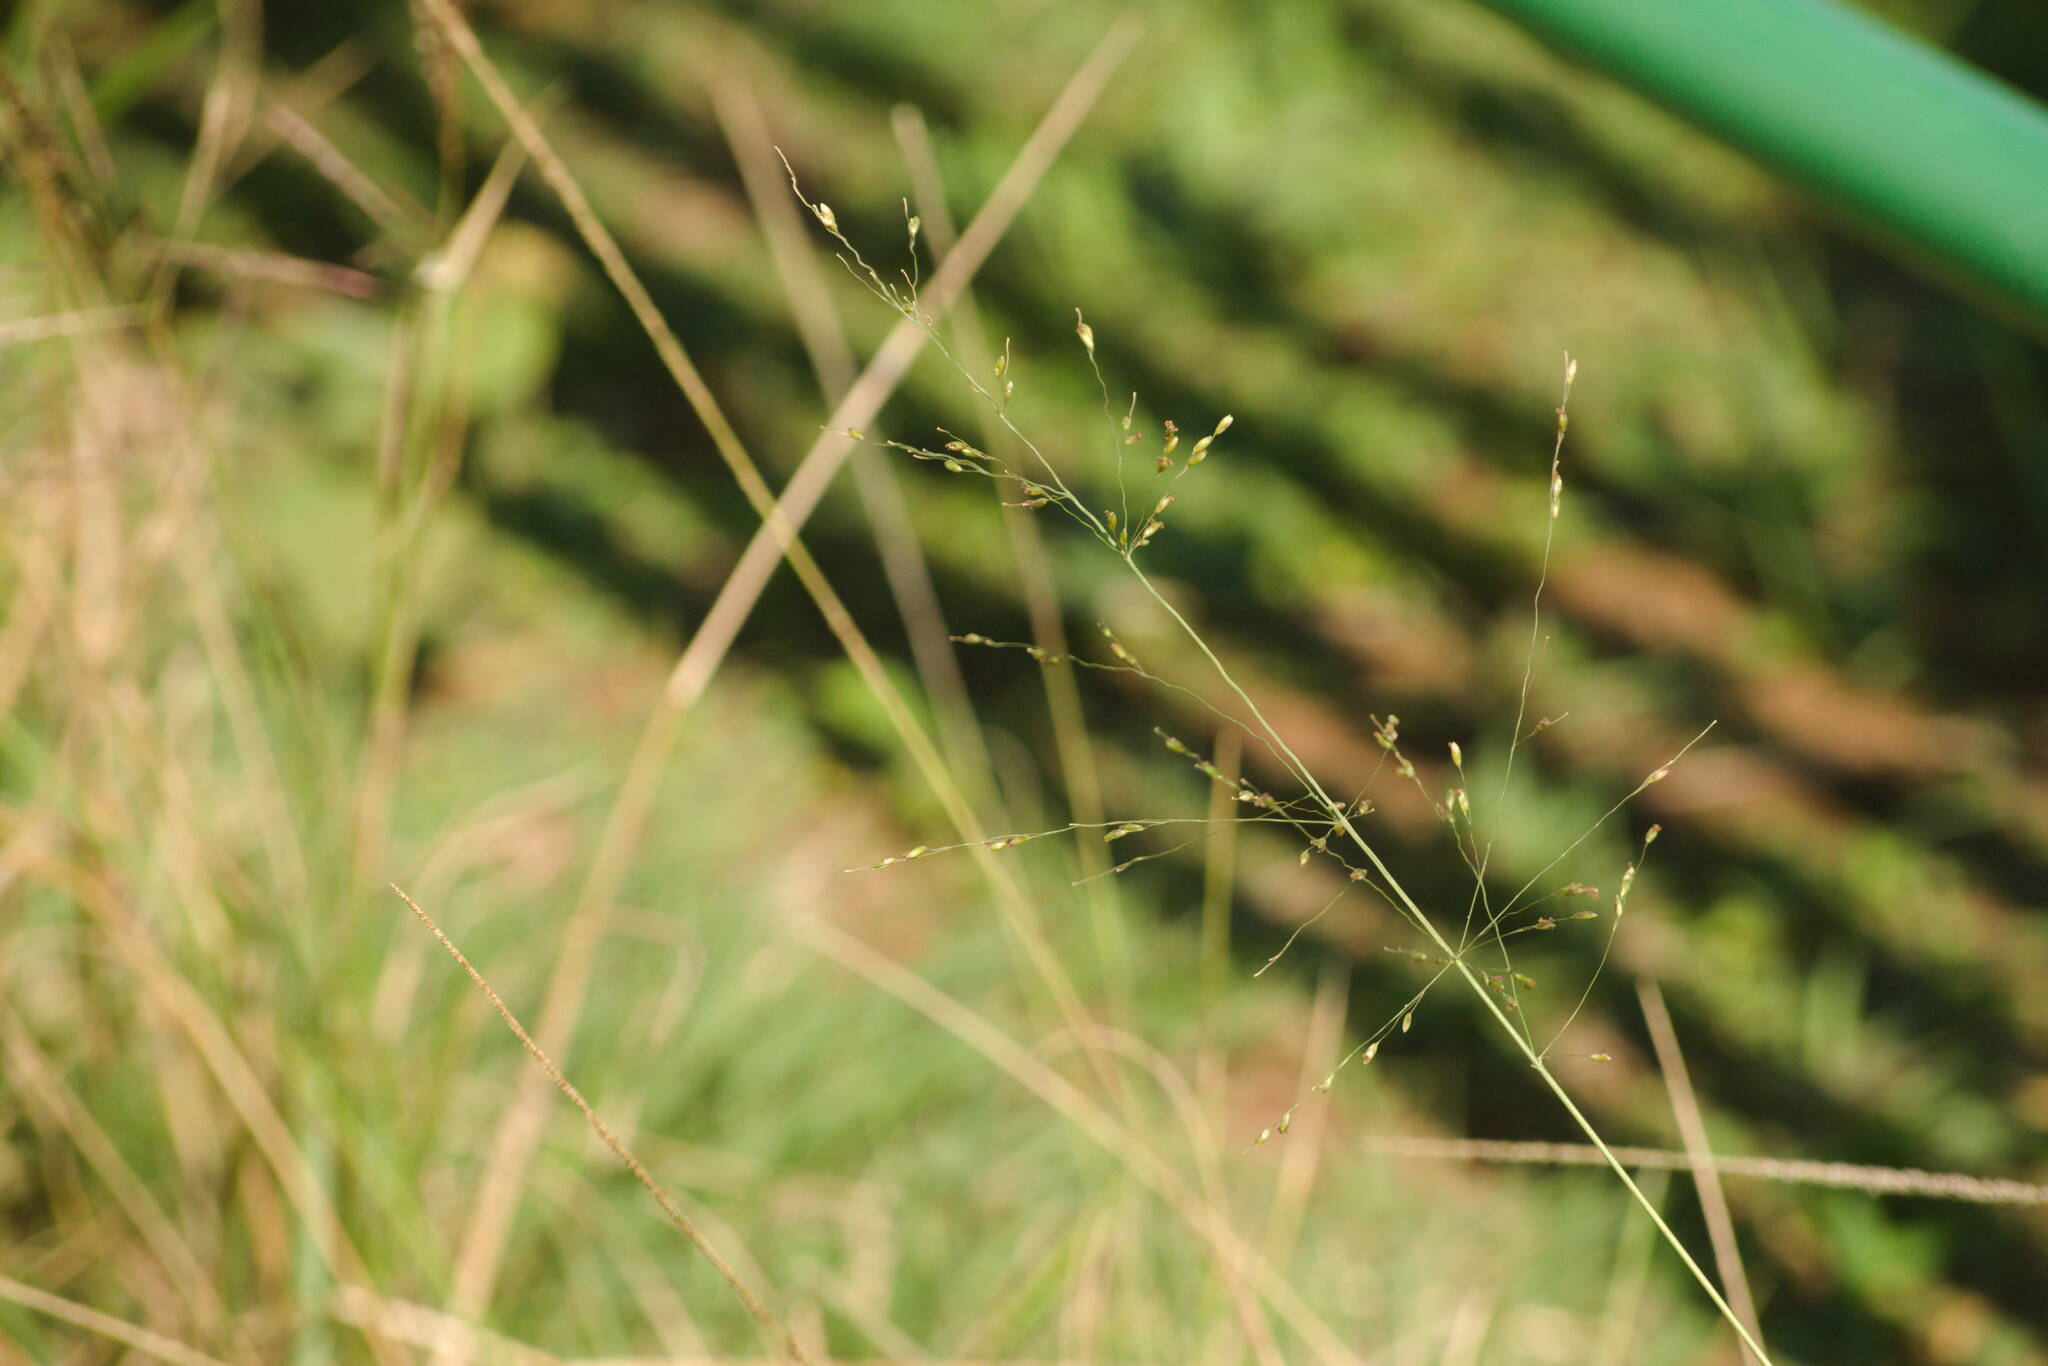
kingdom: Plantae
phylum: Tracheophyta
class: Liliopsida
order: Poales
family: Poaceae
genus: Megathyrsus
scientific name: Megathyrsus maximus
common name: Guineagrass
